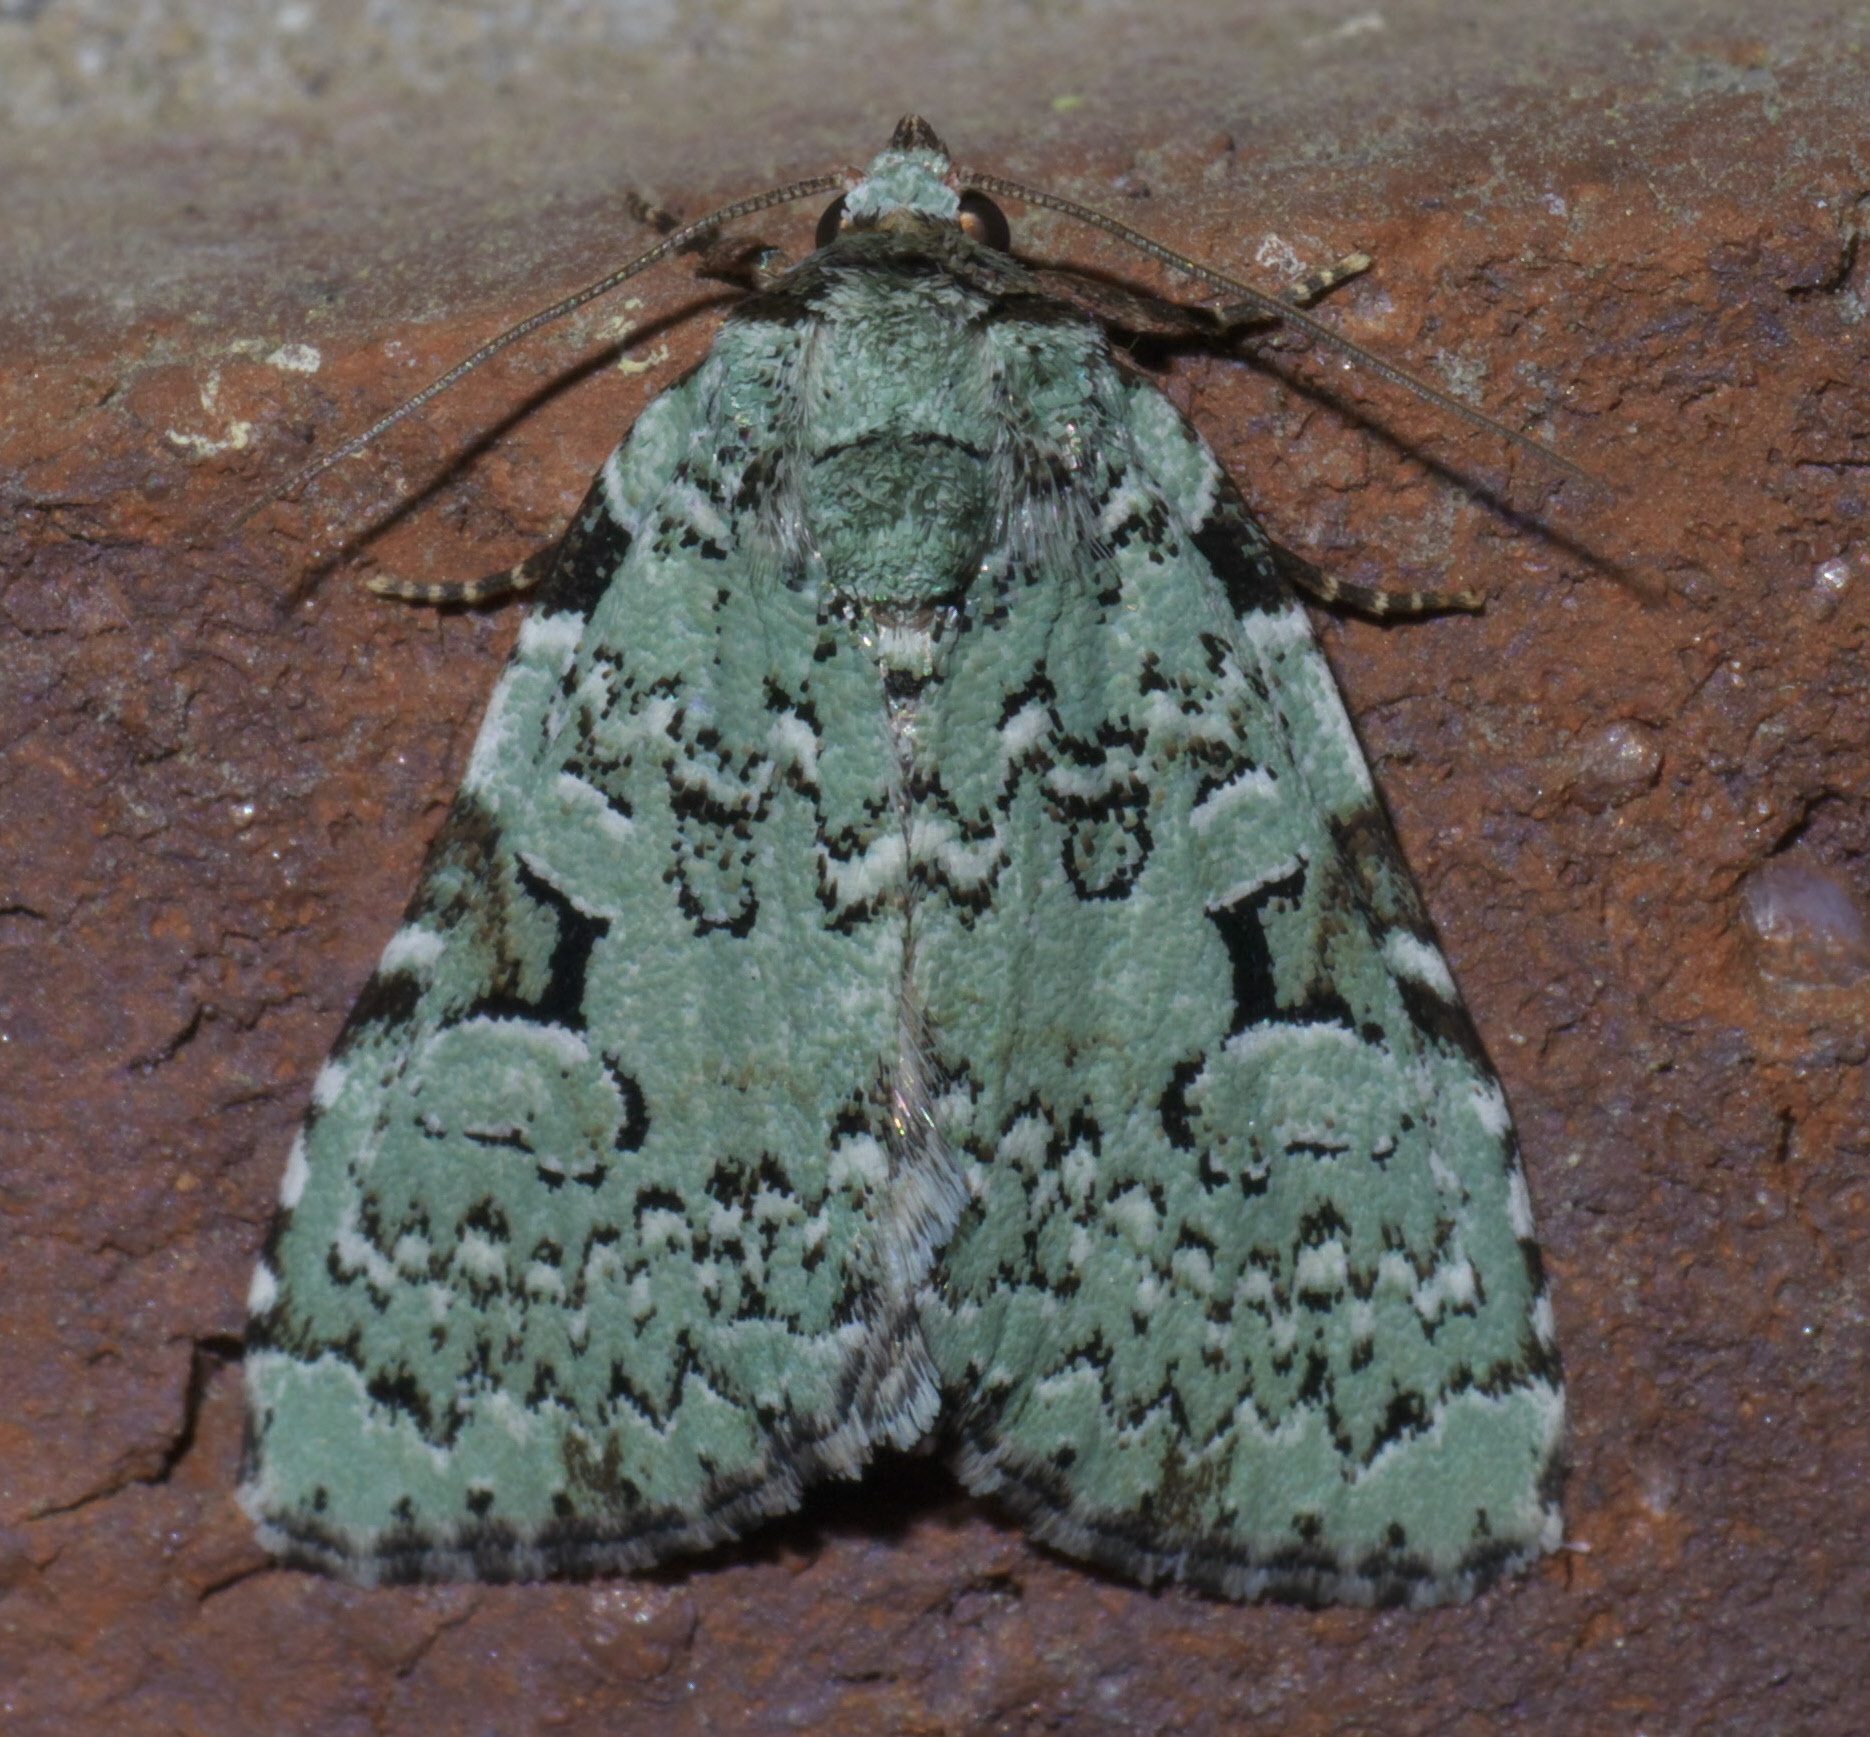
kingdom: Animalia
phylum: Arthropoda
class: Insecta
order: Lepidoptera
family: Noctuidae
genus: Leuconycta
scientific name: Leuconycta diphteroides
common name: Green leuconycta moth
